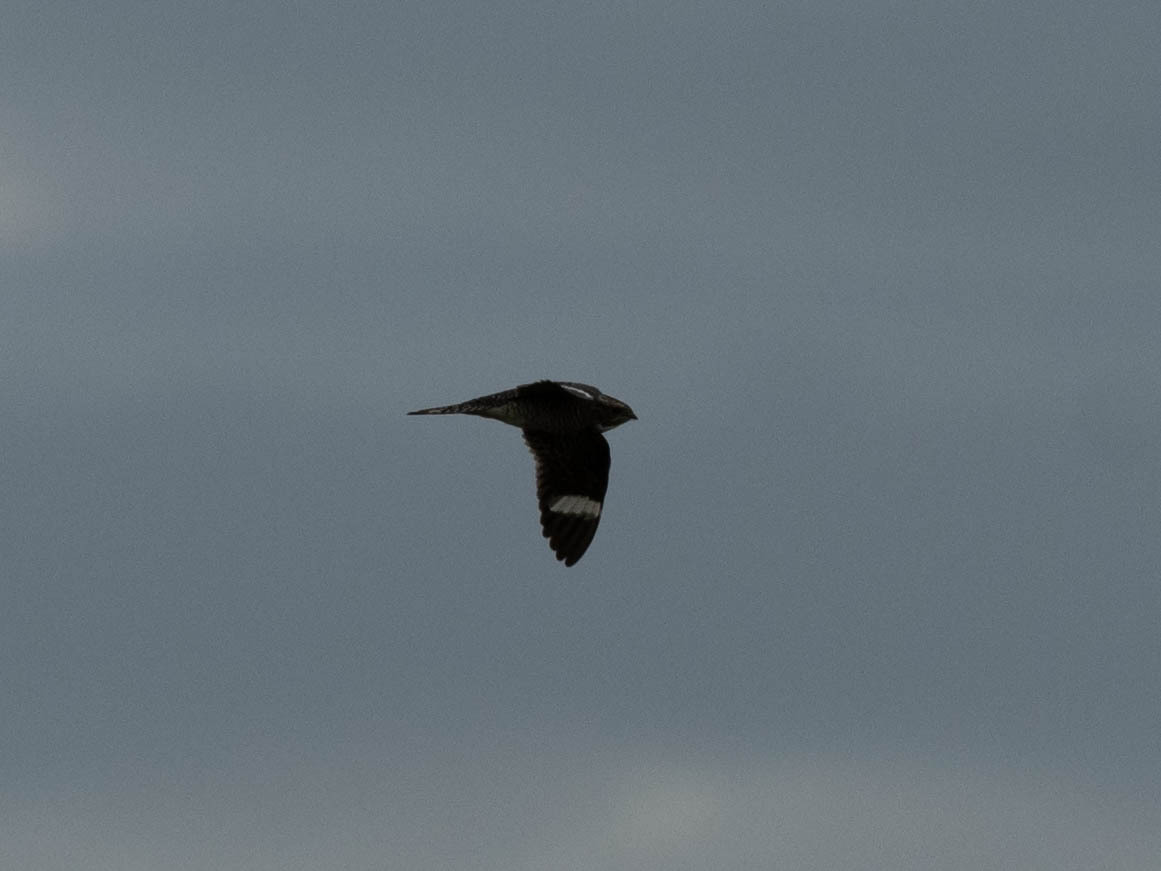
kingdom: Animalia
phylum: Chordata
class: Aves
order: Caprimulgiformes
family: Caprimulgidae
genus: Chordeiles
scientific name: Chordeiles minor
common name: Common nighthawk
